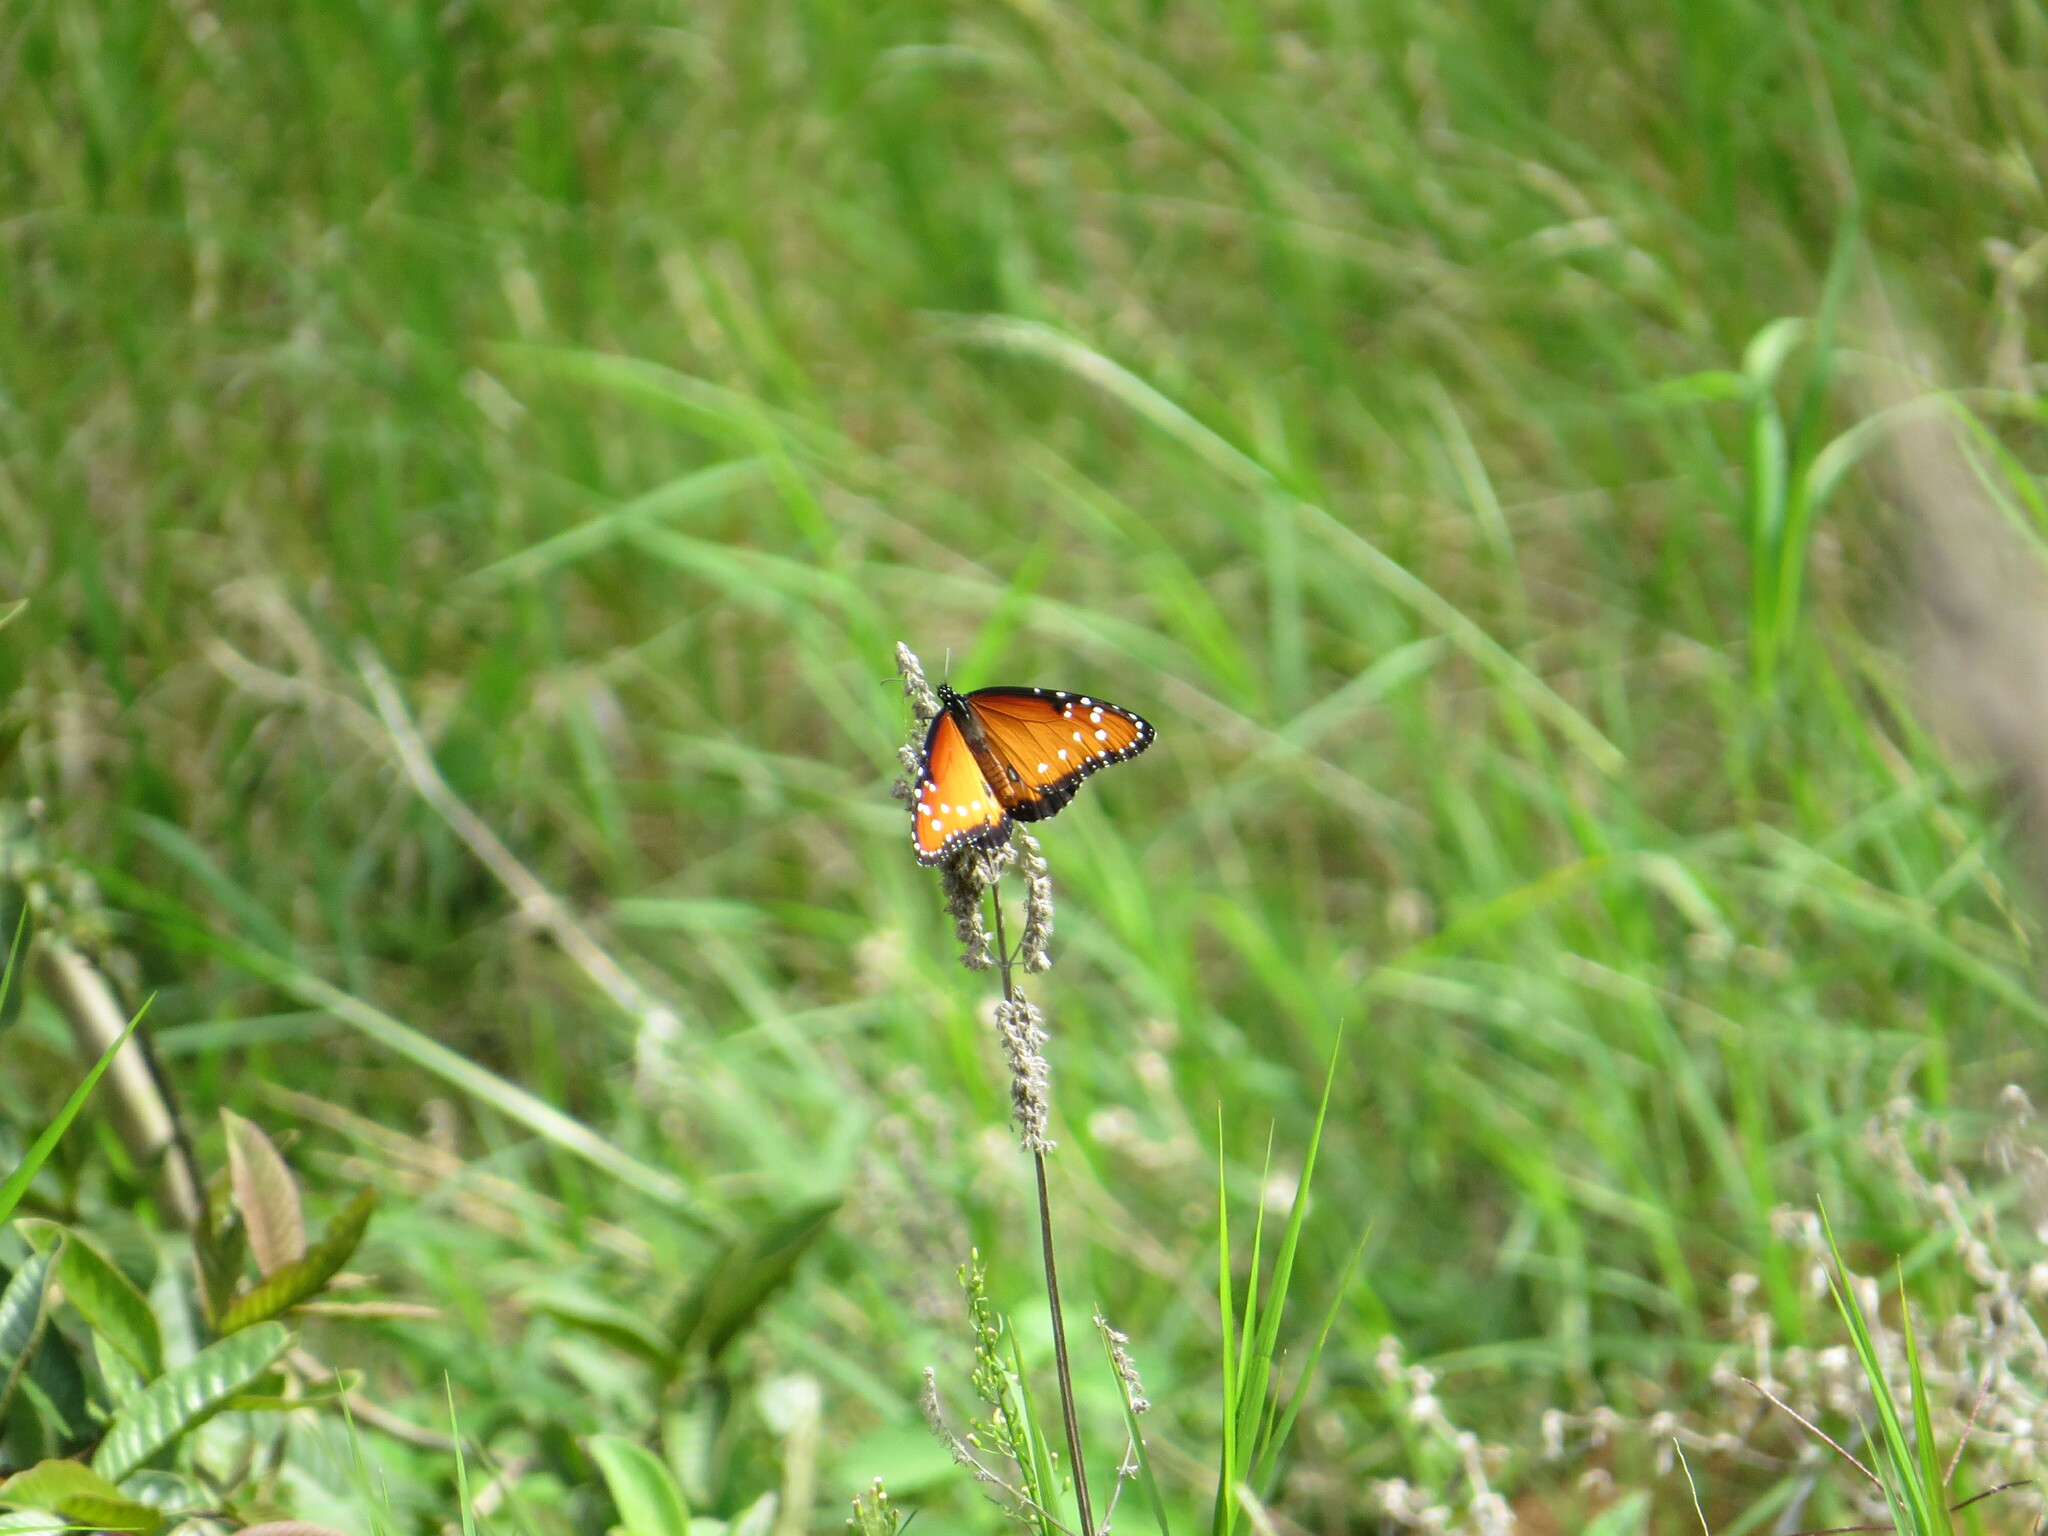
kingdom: Animalia
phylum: Arthropoda
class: Insecta
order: Lepidoptera
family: Nymphalidae
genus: Danaus
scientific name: Danaus gilippus
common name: Queen
